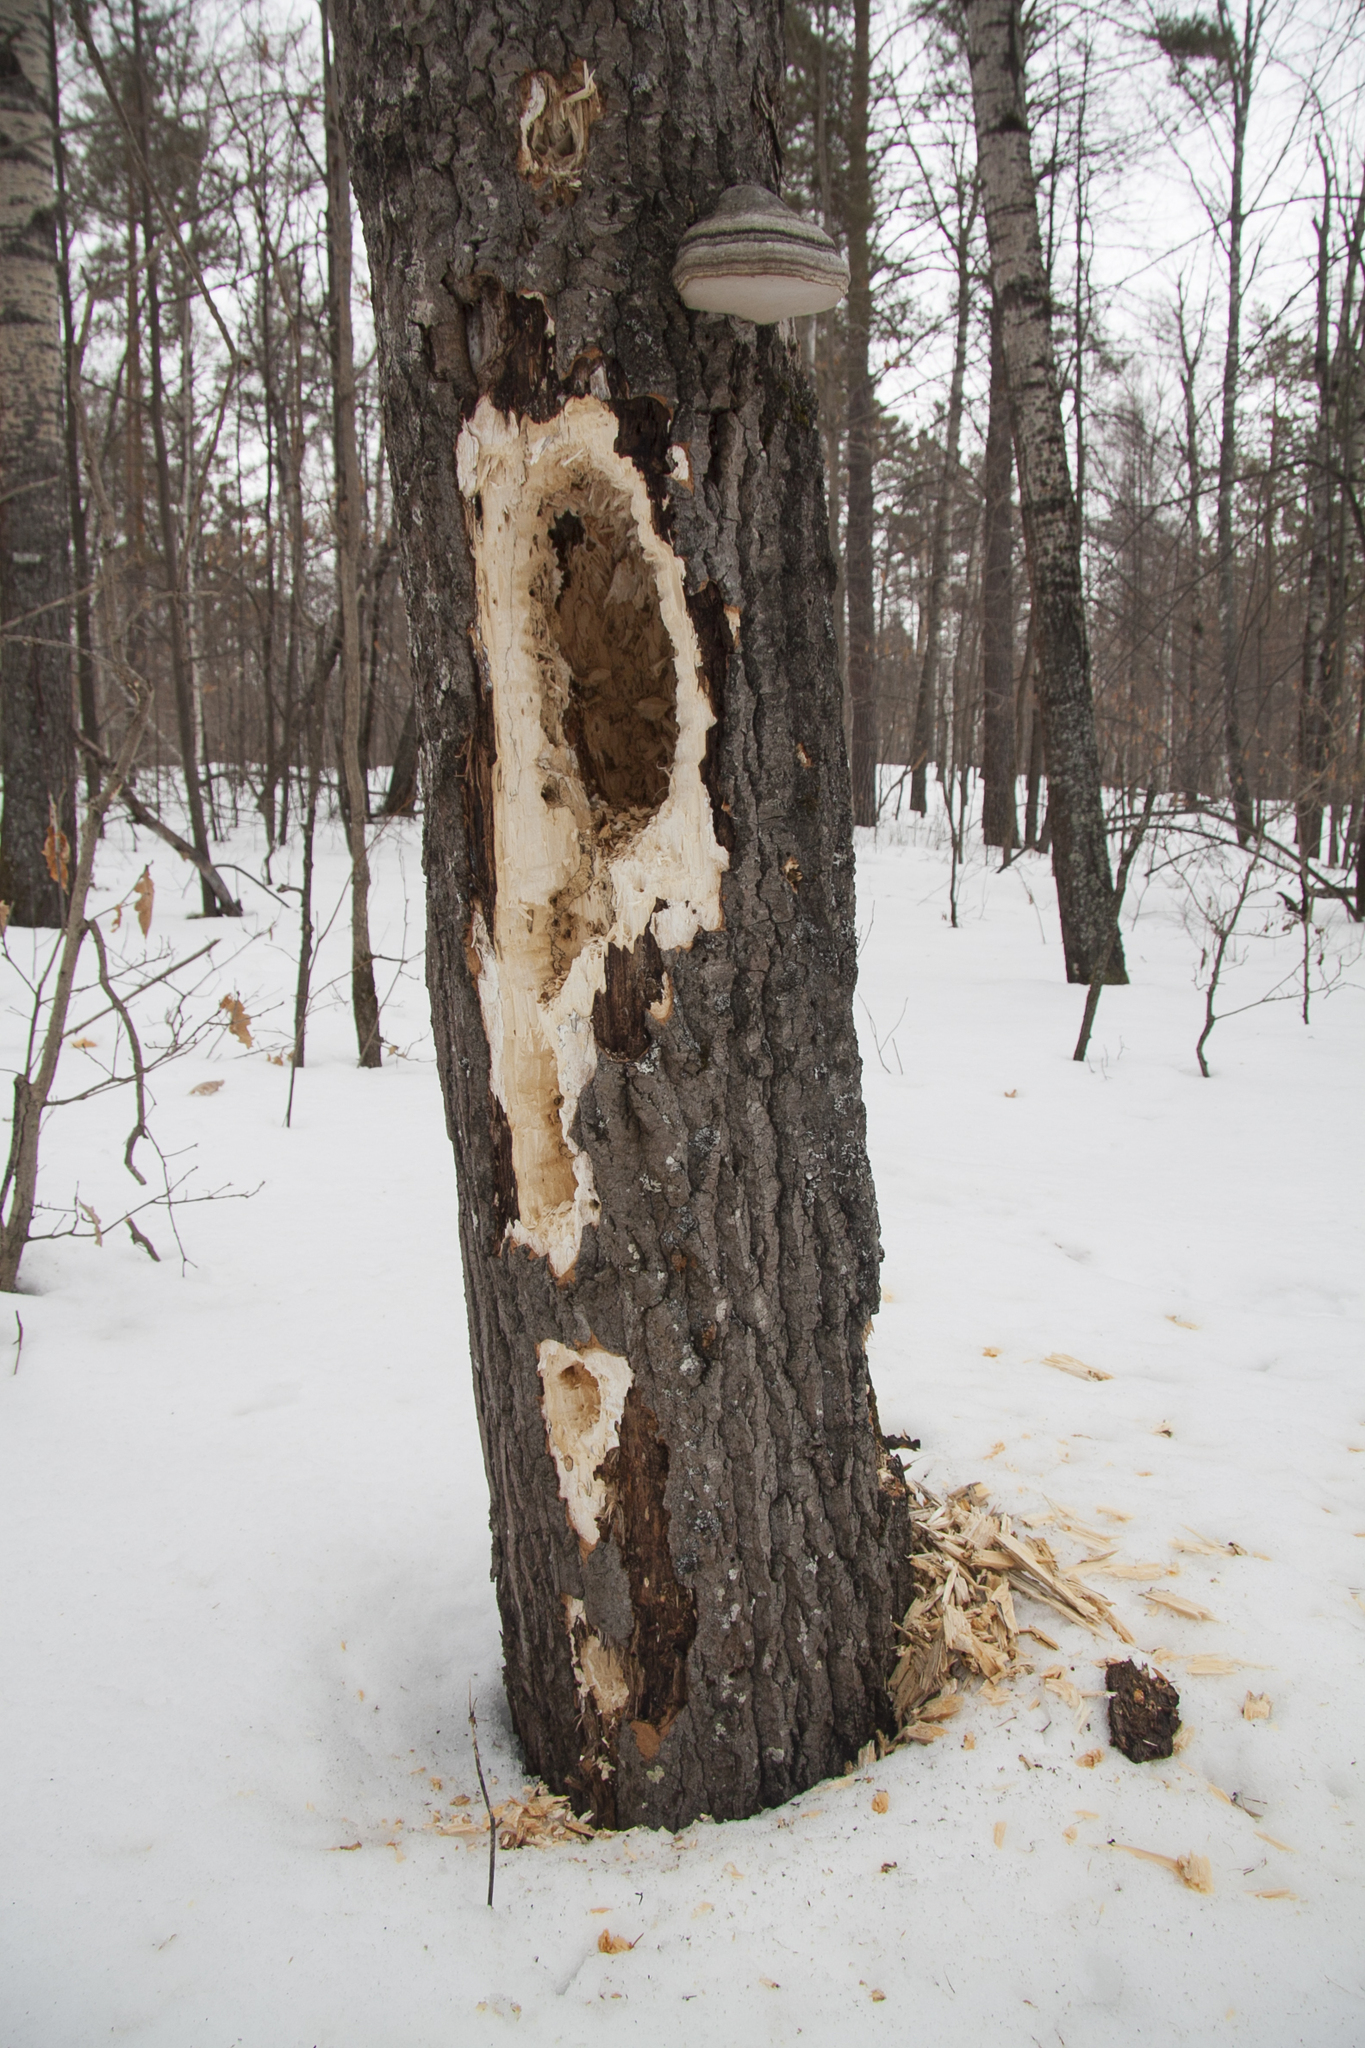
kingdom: Animalia
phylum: Chordata
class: Aves
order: Piciformes
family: Picidae
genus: Dryocopus
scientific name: Dryocopus martius
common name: Black woodpecker
